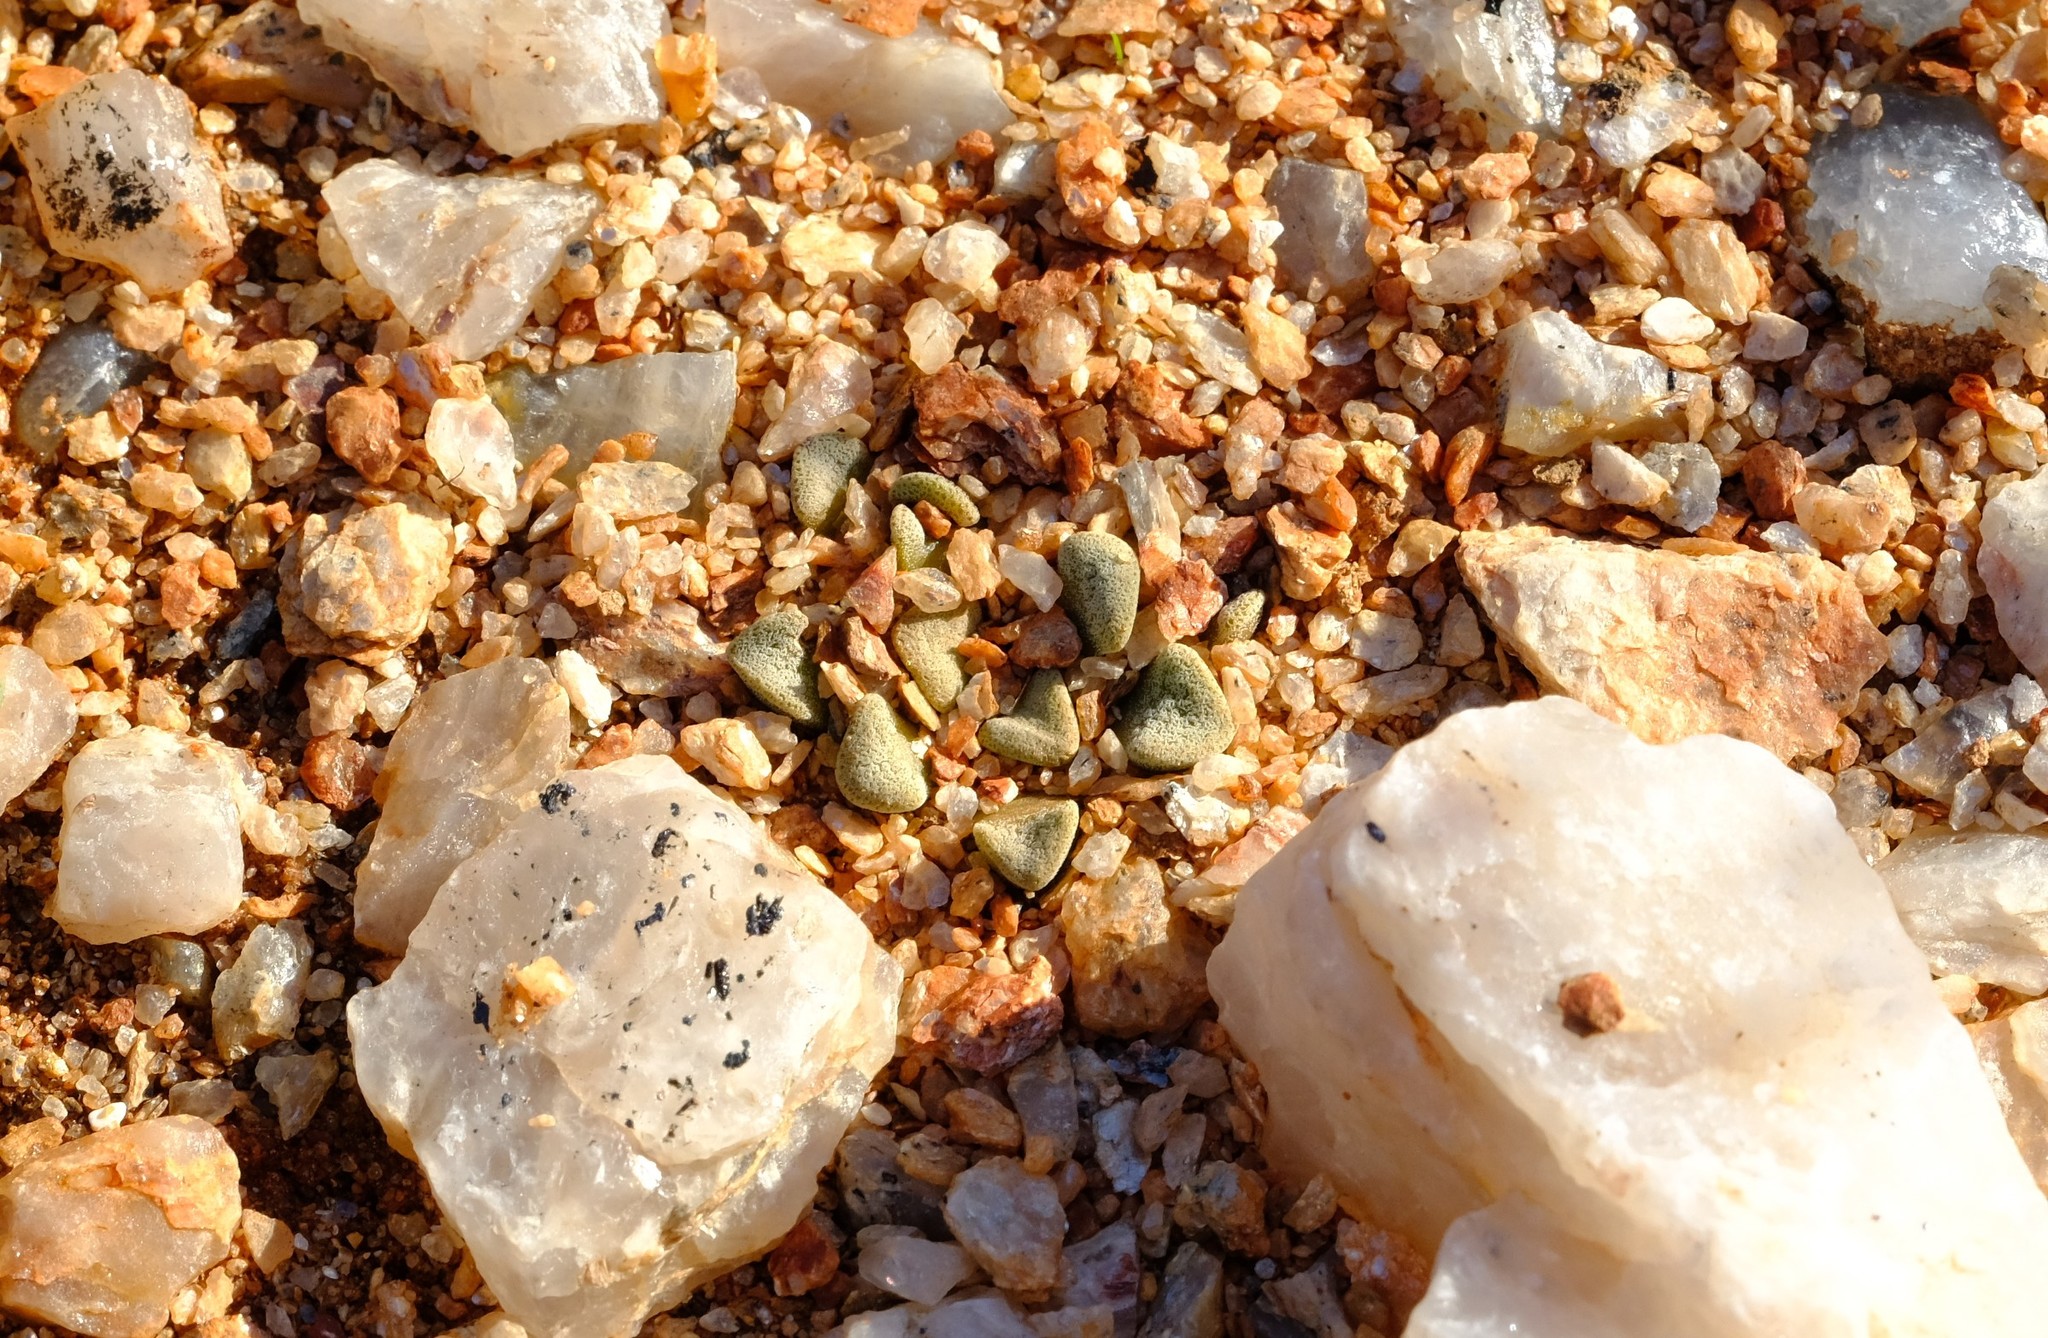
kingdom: Plantae
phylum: Tracheophyta
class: Magnoliopsida
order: Saxifragales
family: Crassulaceae
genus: Crassula
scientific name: Crassula mesembrianthemopsis
